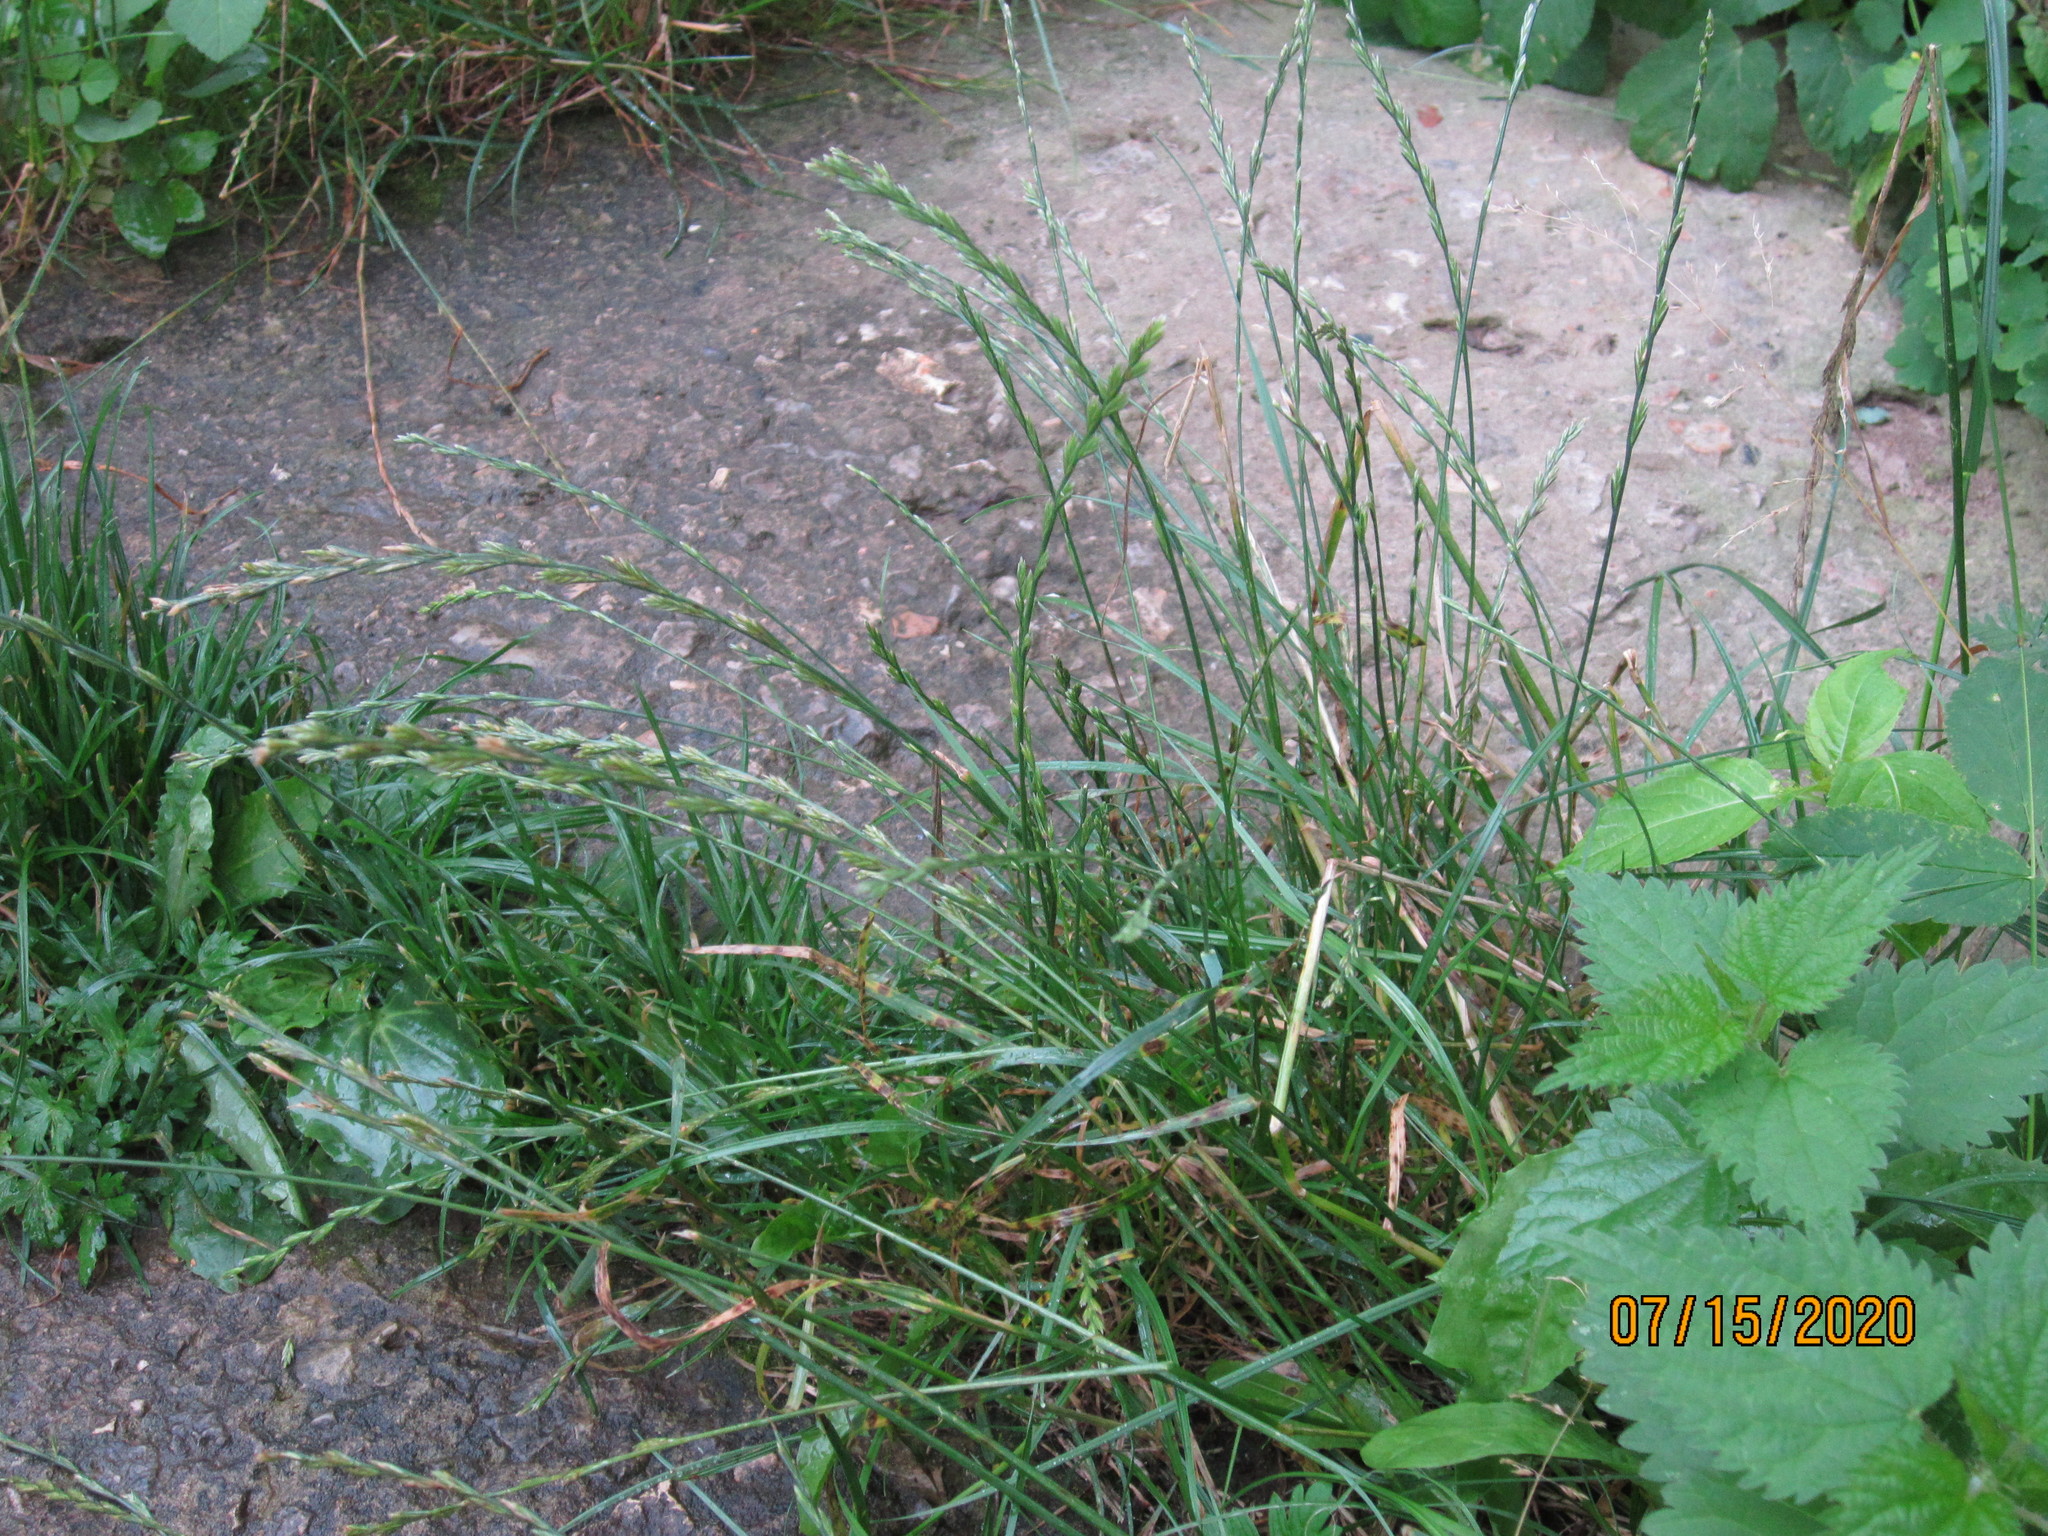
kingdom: Plantae
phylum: Tracheophyta
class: Liliopsida
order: Poales
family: Poaceae
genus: Lolium
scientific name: Lolium perenne
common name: Perennial ryegrass
